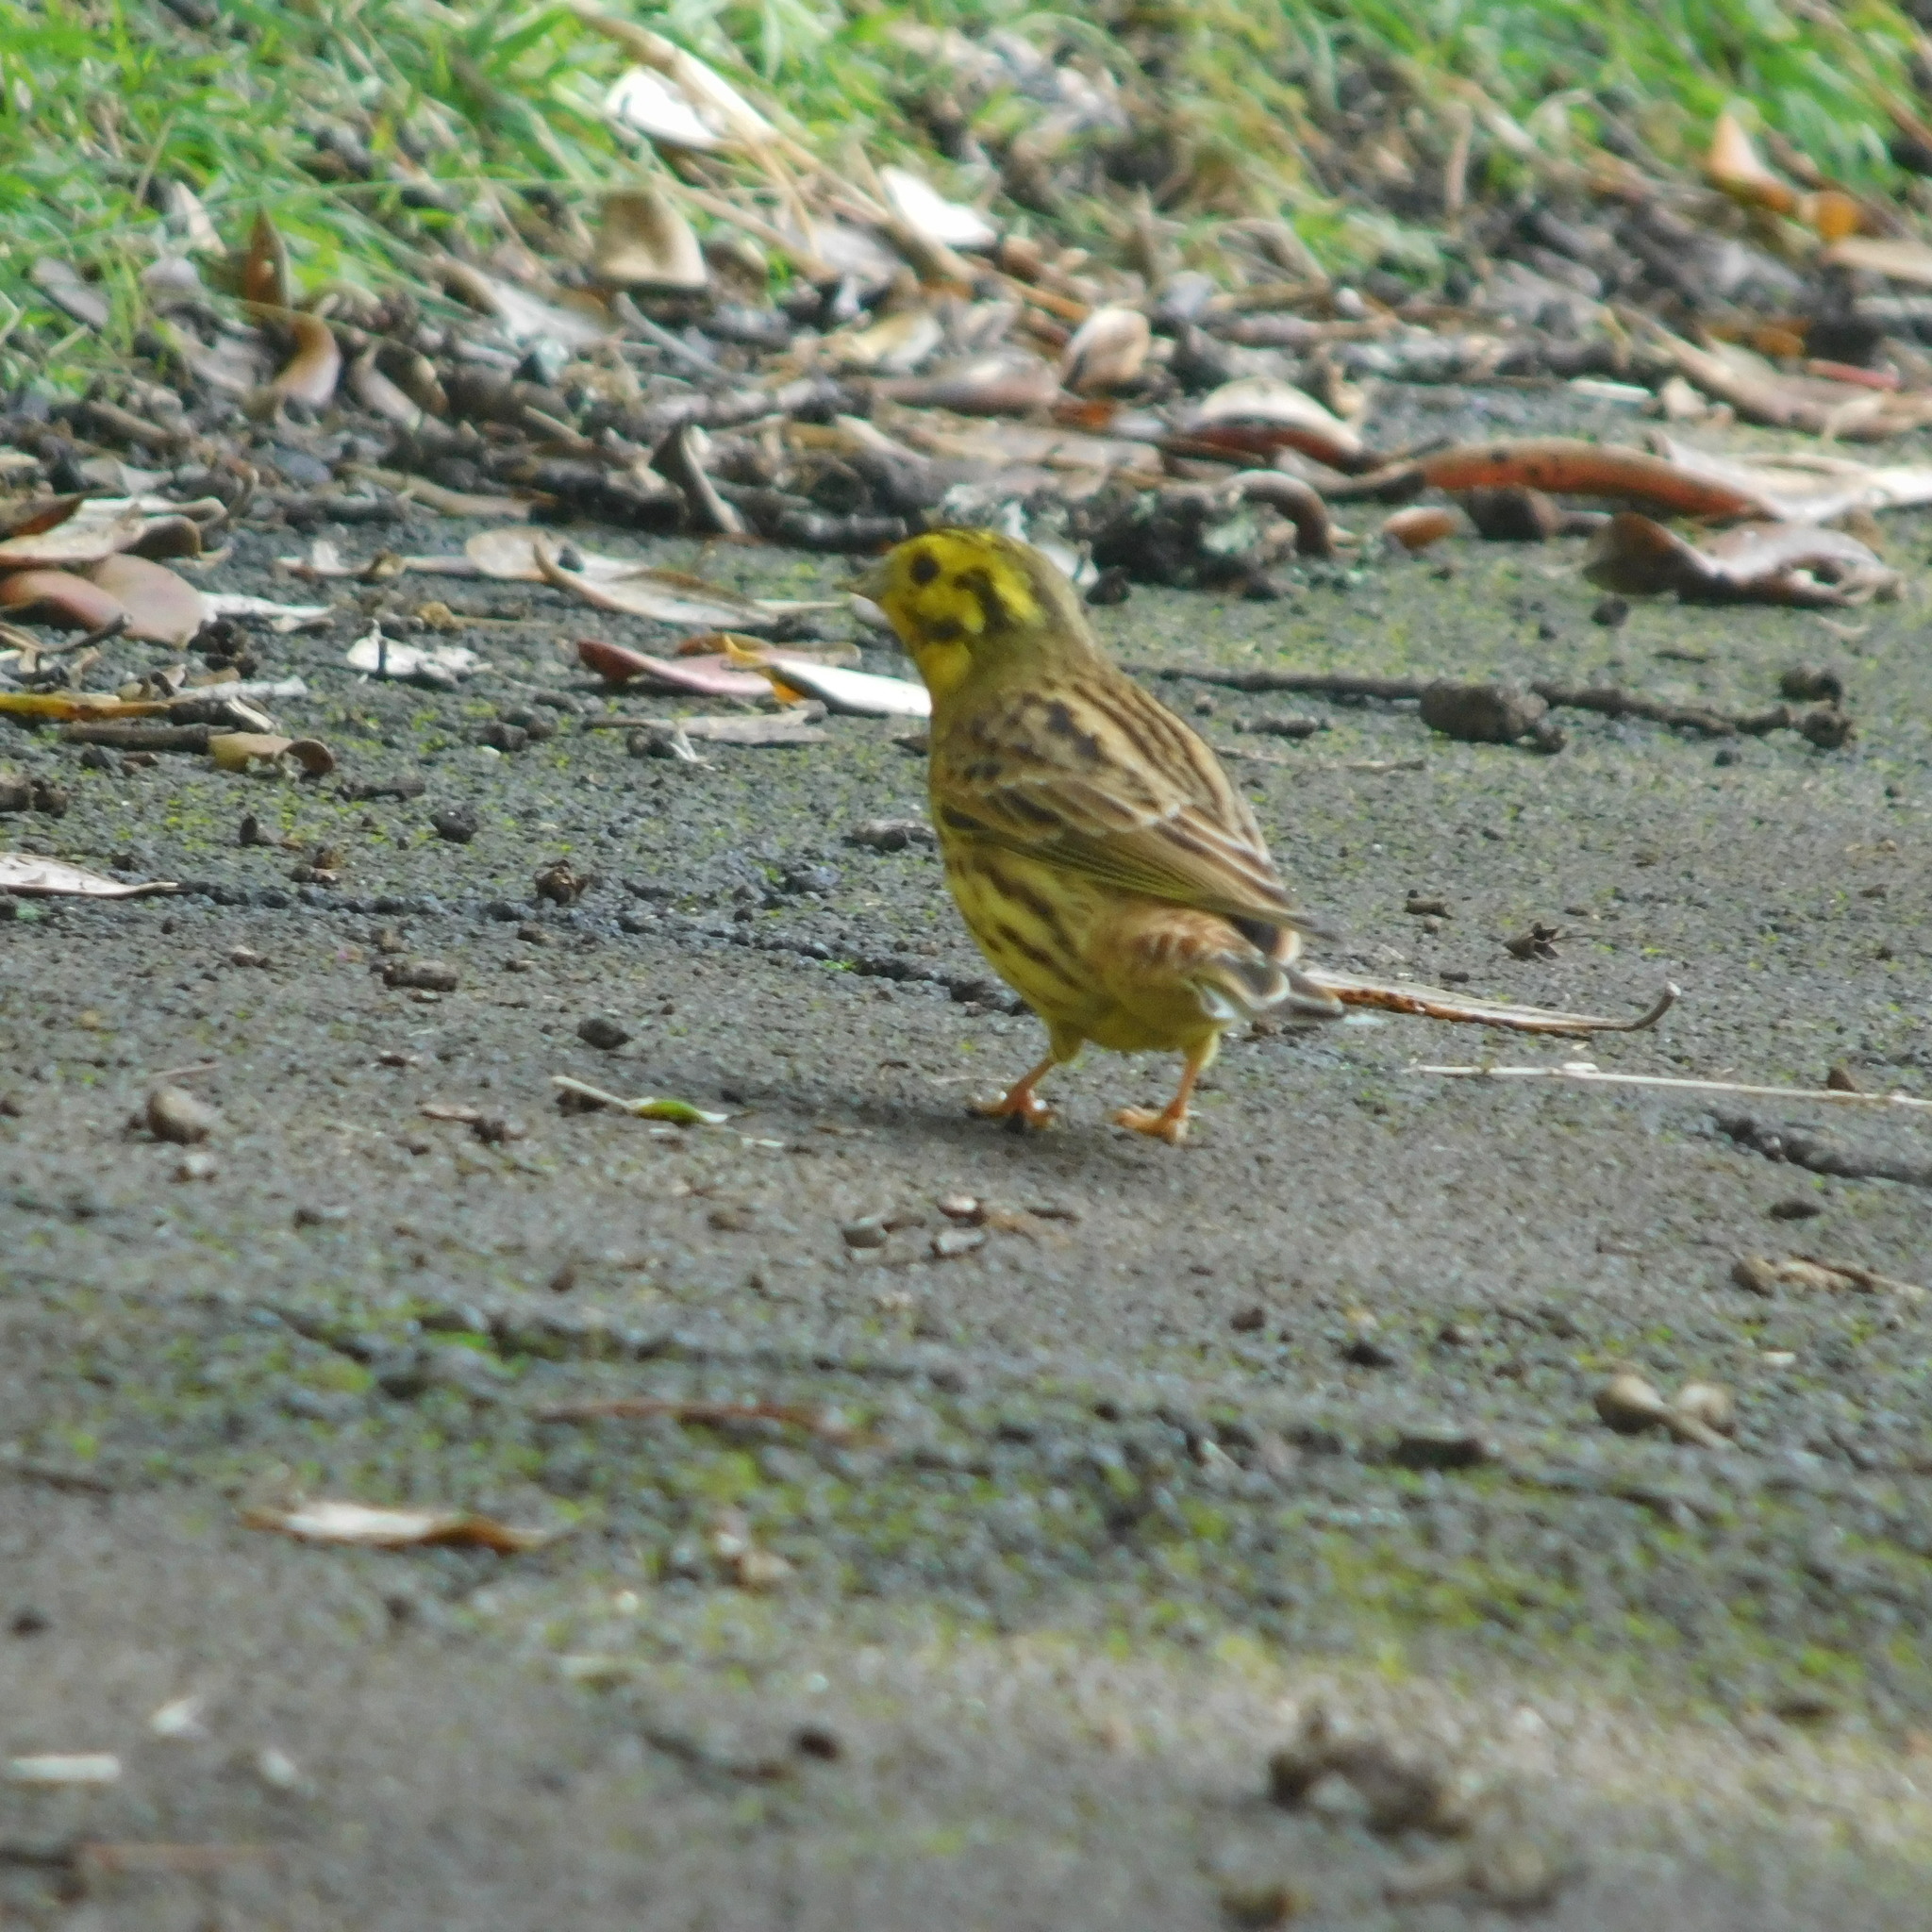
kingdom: Animalia
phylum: Chordata
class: Aves
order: Passeriformes
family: Emberizidae
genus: Emberiza
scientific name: Emberiza citrinella
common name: Yellowhammer
